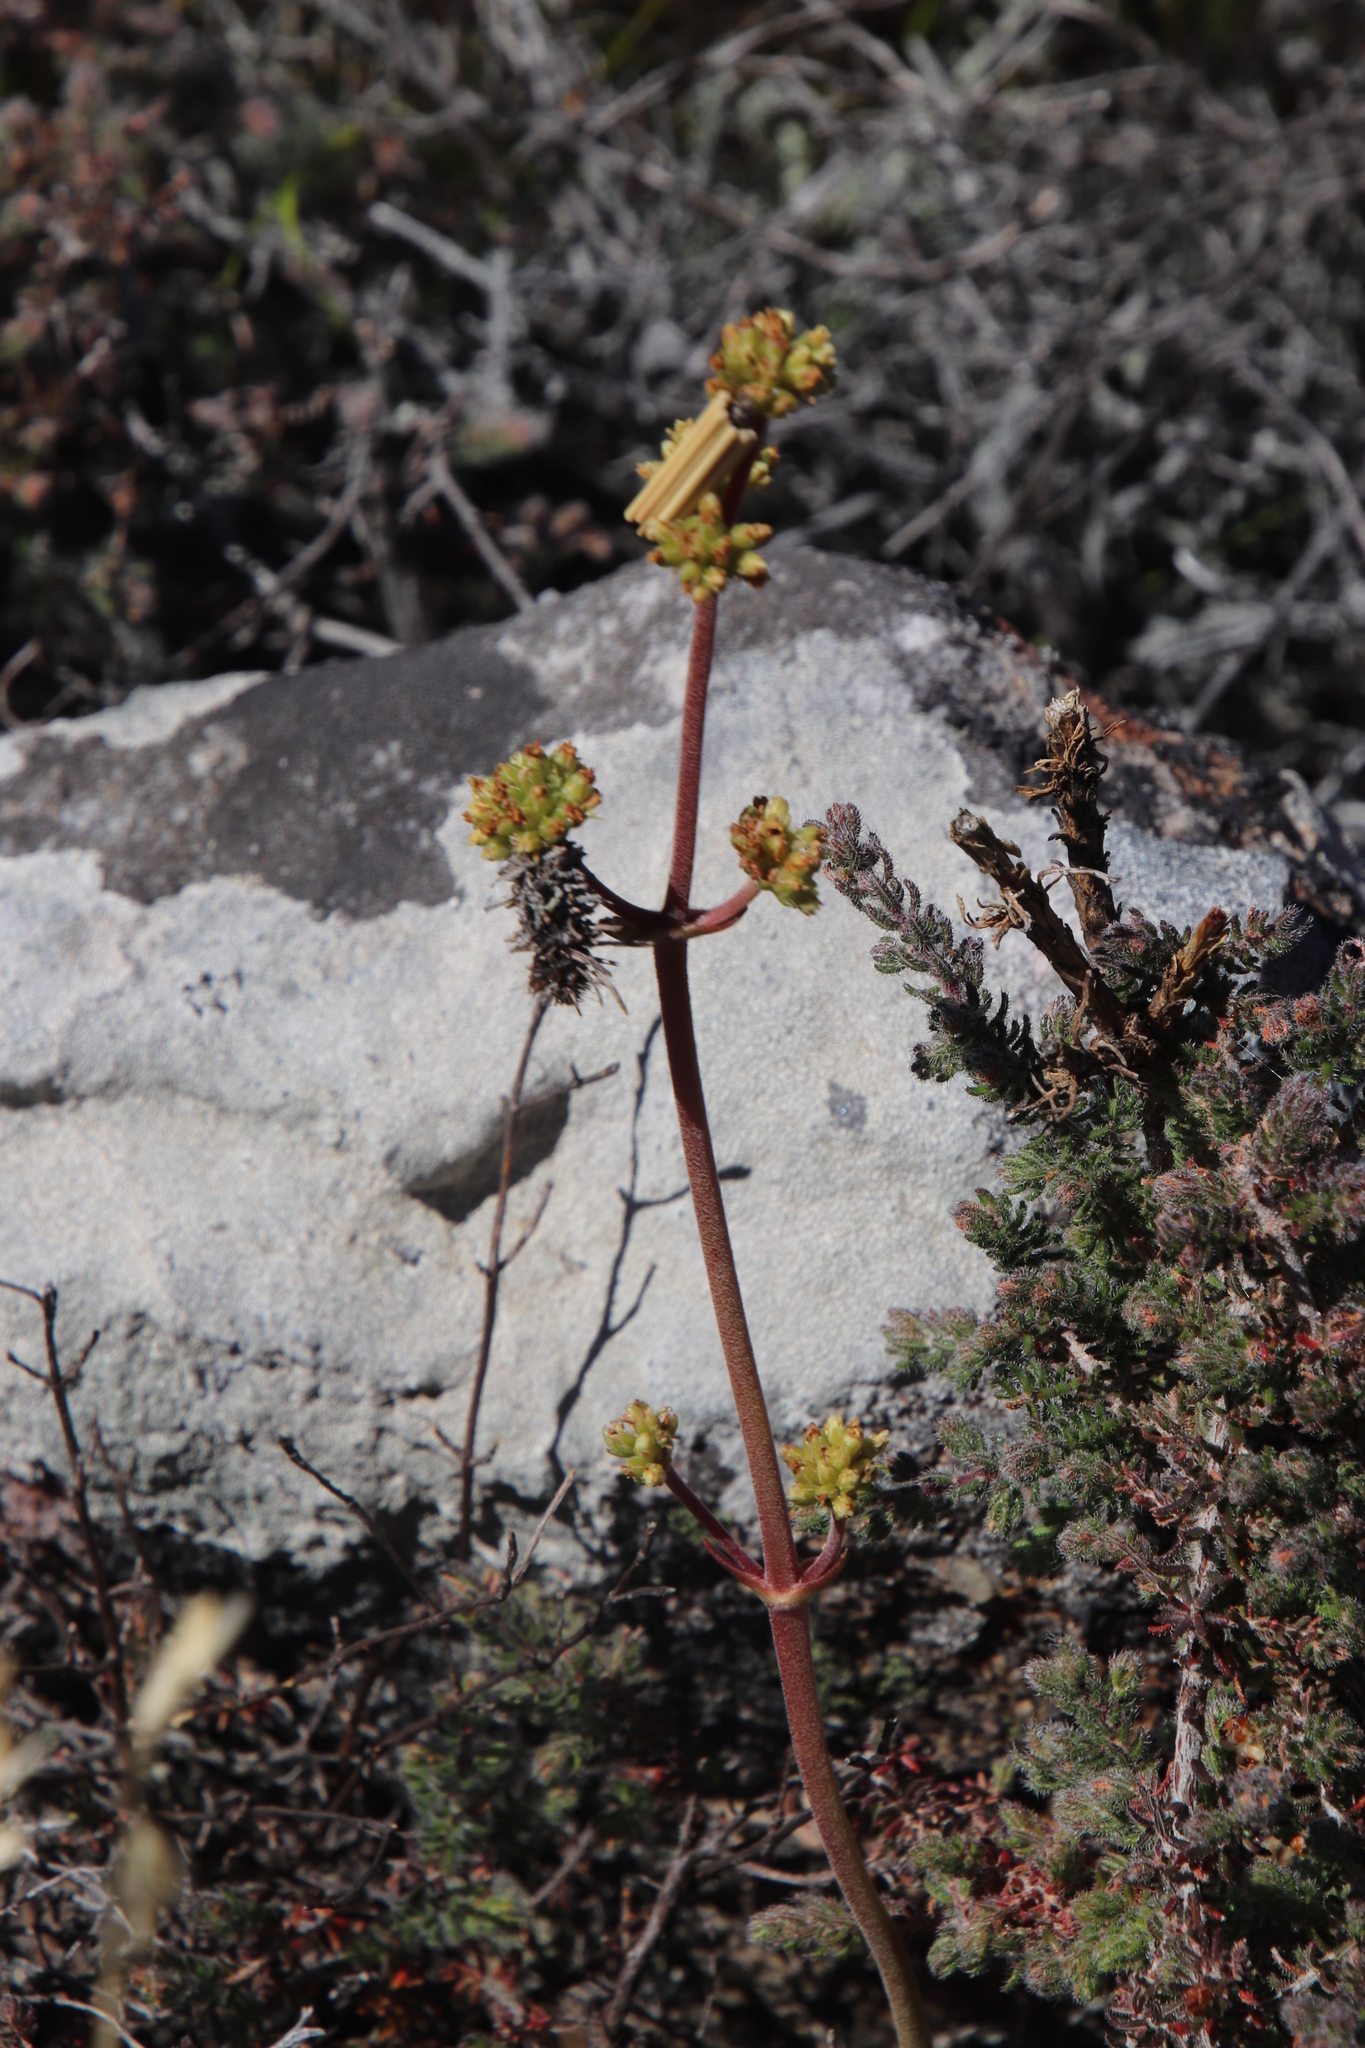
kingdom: Plantae
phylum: Tracheophyta
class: Magnoliopsida
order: Saxifragales
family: Crassulaceae
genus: Crassula
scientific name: Crassula nudicaulis
